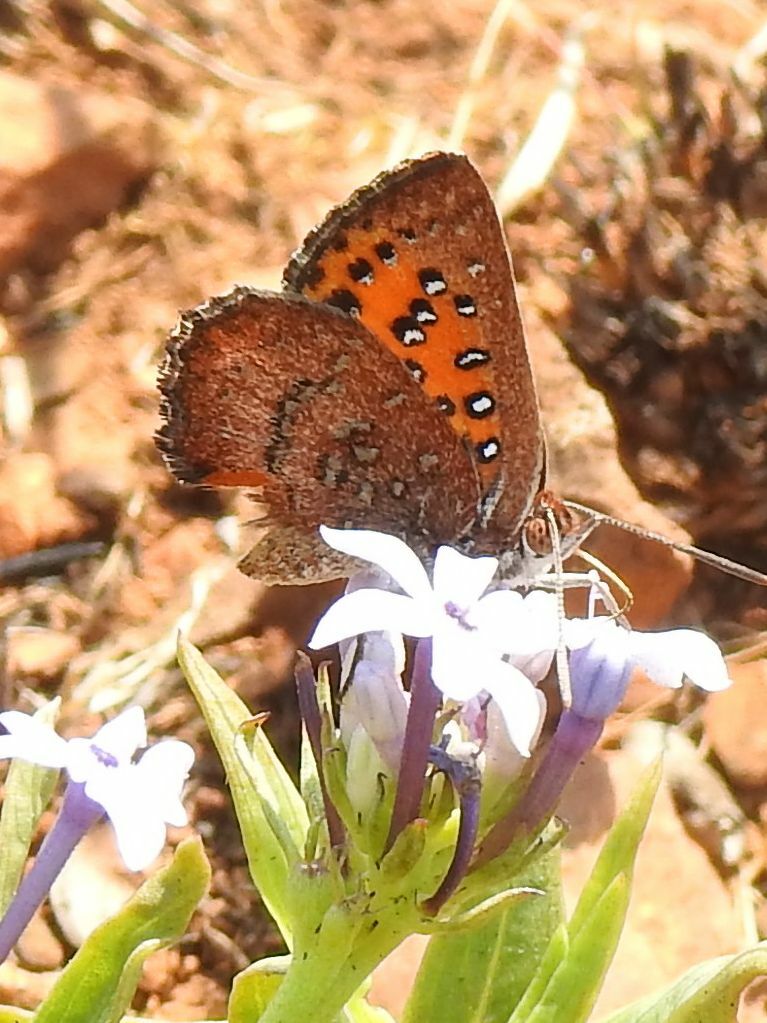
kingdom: Animalia
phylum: Arthropoda
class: Insecta
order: Lepidoptera
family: Lycaenidae
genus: Aloeides
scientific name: Aloeides swanepoeli
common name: Swanepoel's copper
